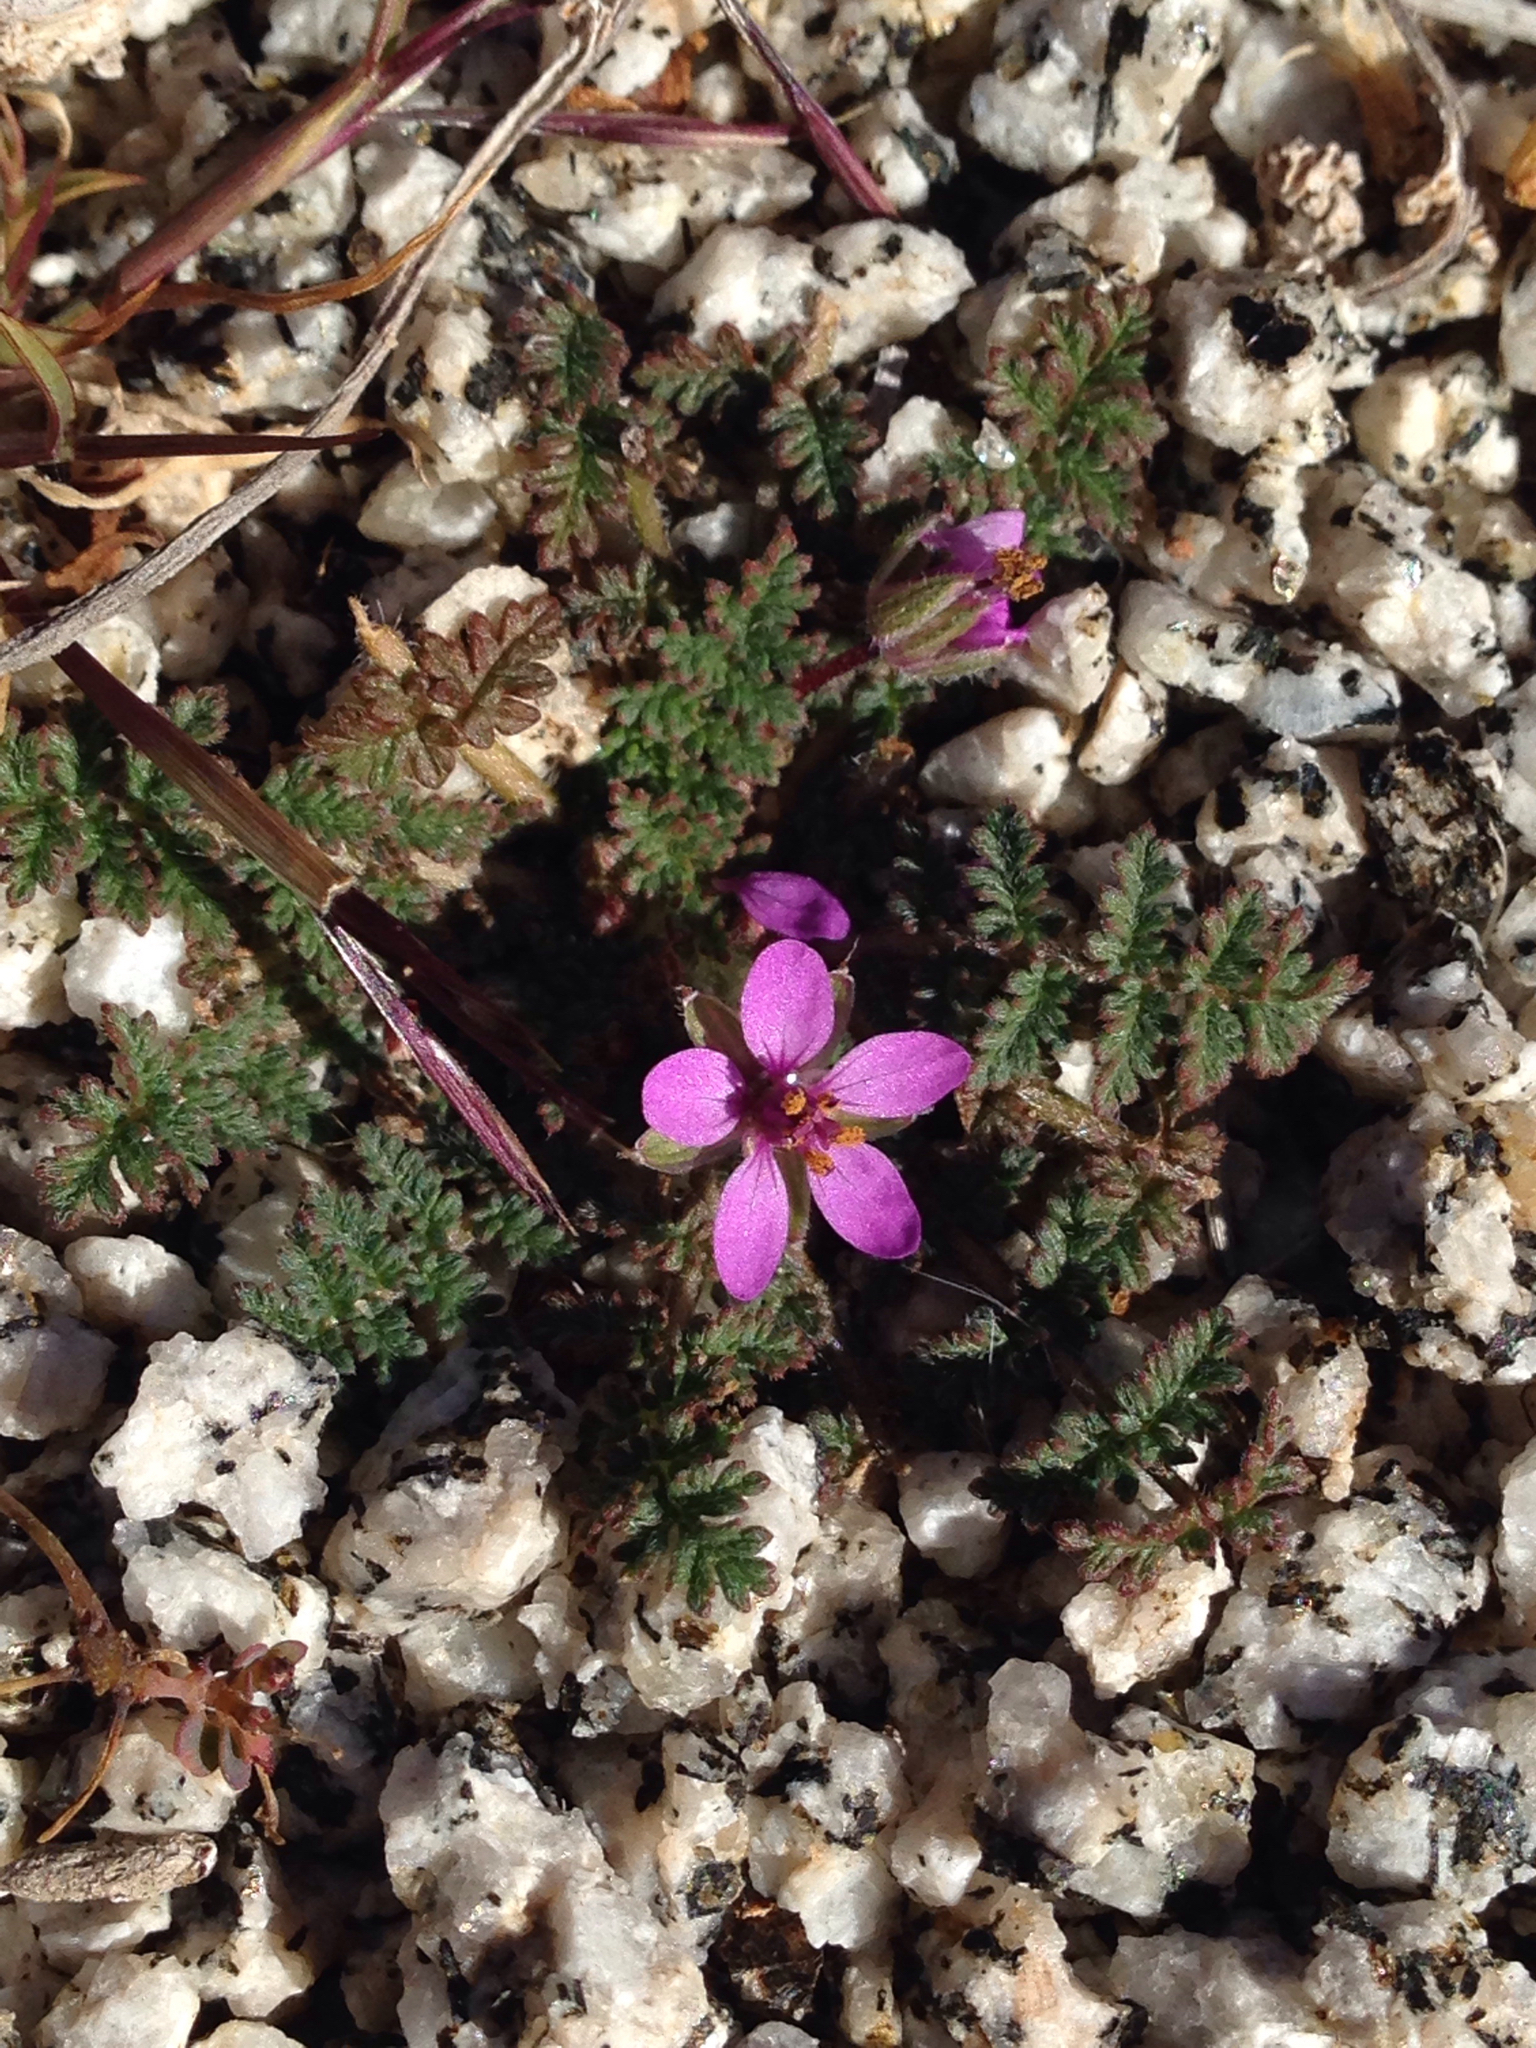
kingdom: Plantae
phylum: Tracheophyta
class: Magnoliopsida
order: Geraniales
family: Geraniaceae
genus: Erodium
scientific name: Erodium cicutarium
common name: Common stork's-bill
